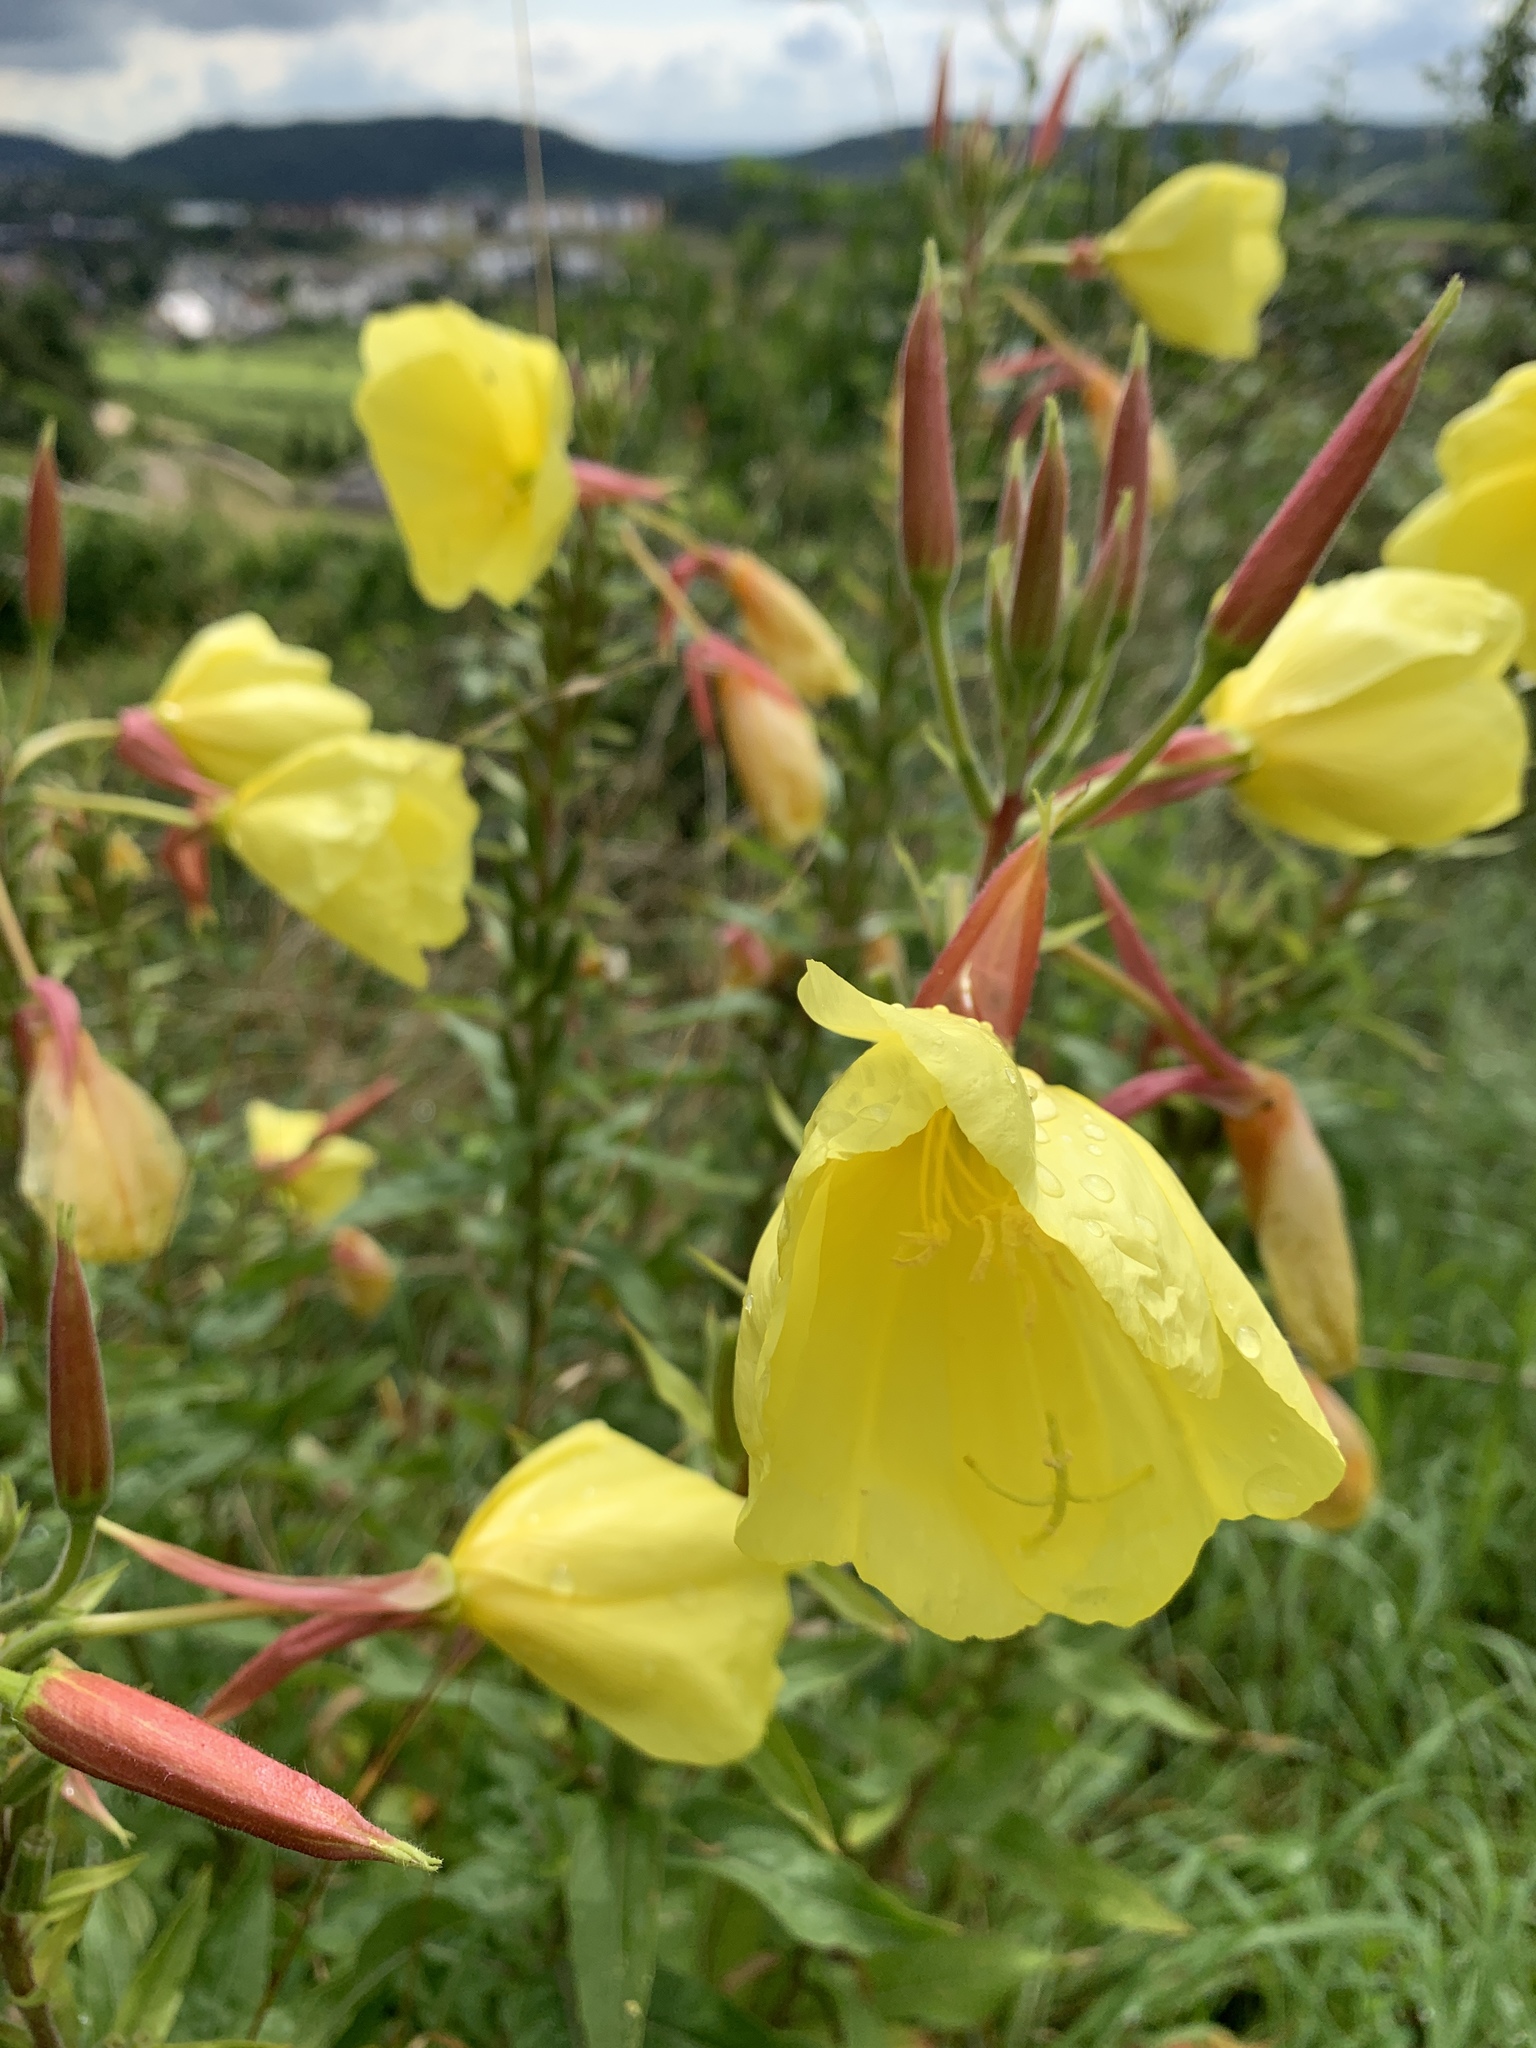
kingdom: Plantae
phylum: Tracheophyta
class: Magnoliopsida
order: Myrtales
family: Onagraceae
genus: Oenothera
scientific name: Oenothera glazioviana
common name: Large-flowered evening-primrose
